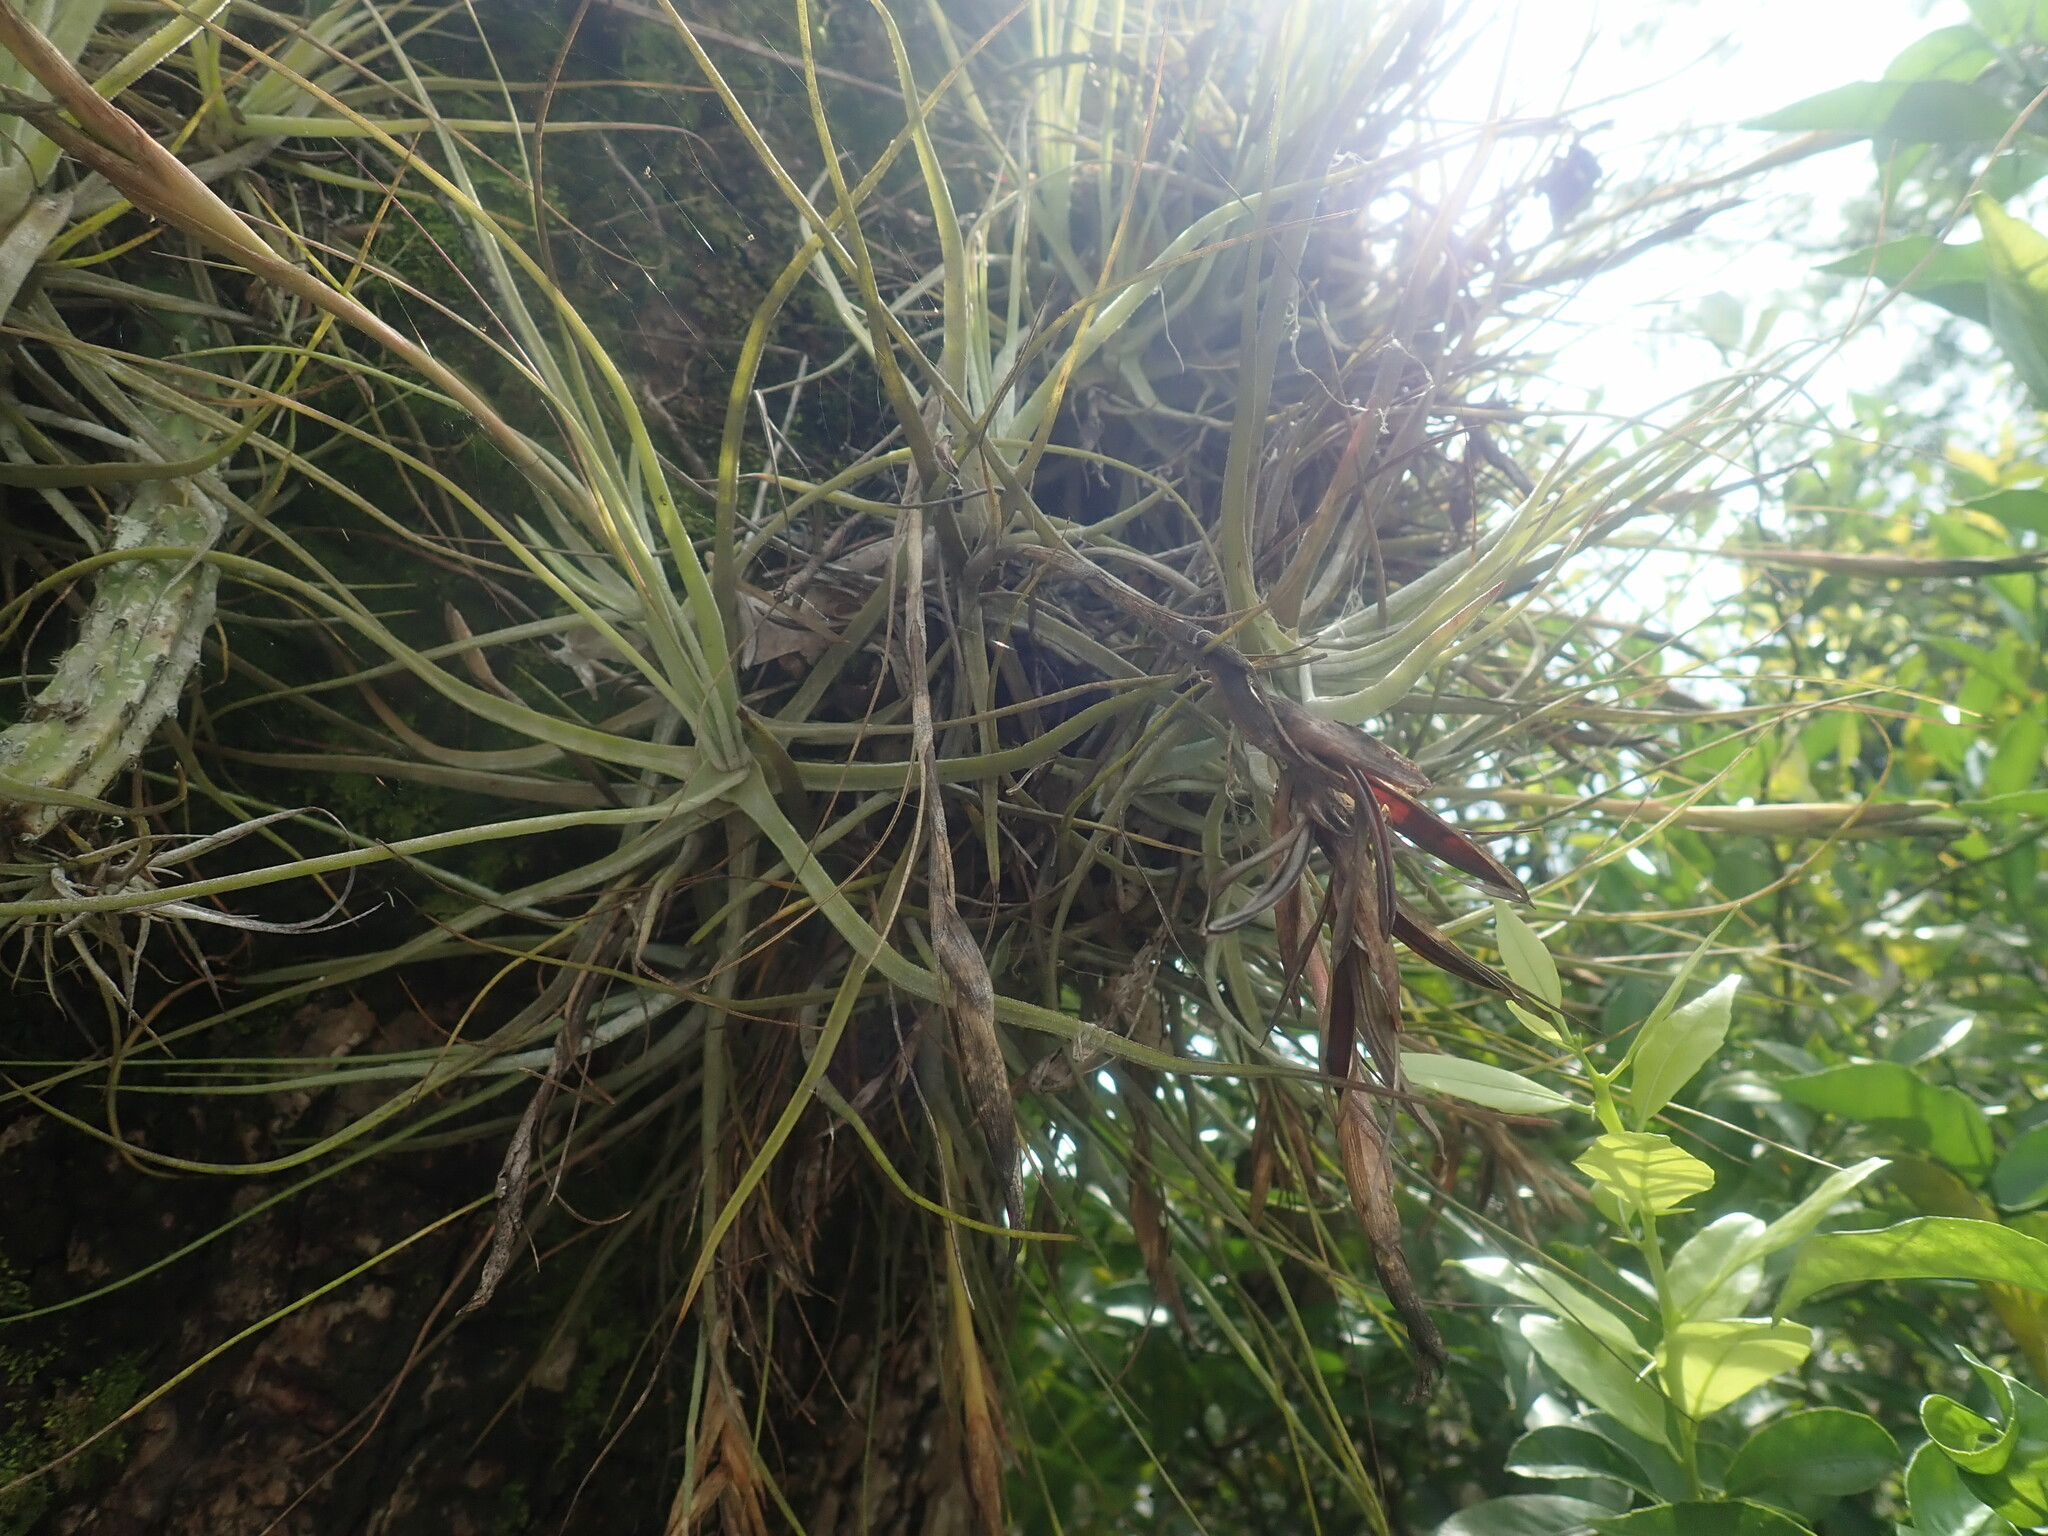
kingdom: Plantae
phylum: Tracheophyta
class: Liliopsida
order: Poales
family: Bromeliaceae
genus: Tillandsia
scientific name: Tillandsia schiedeana
